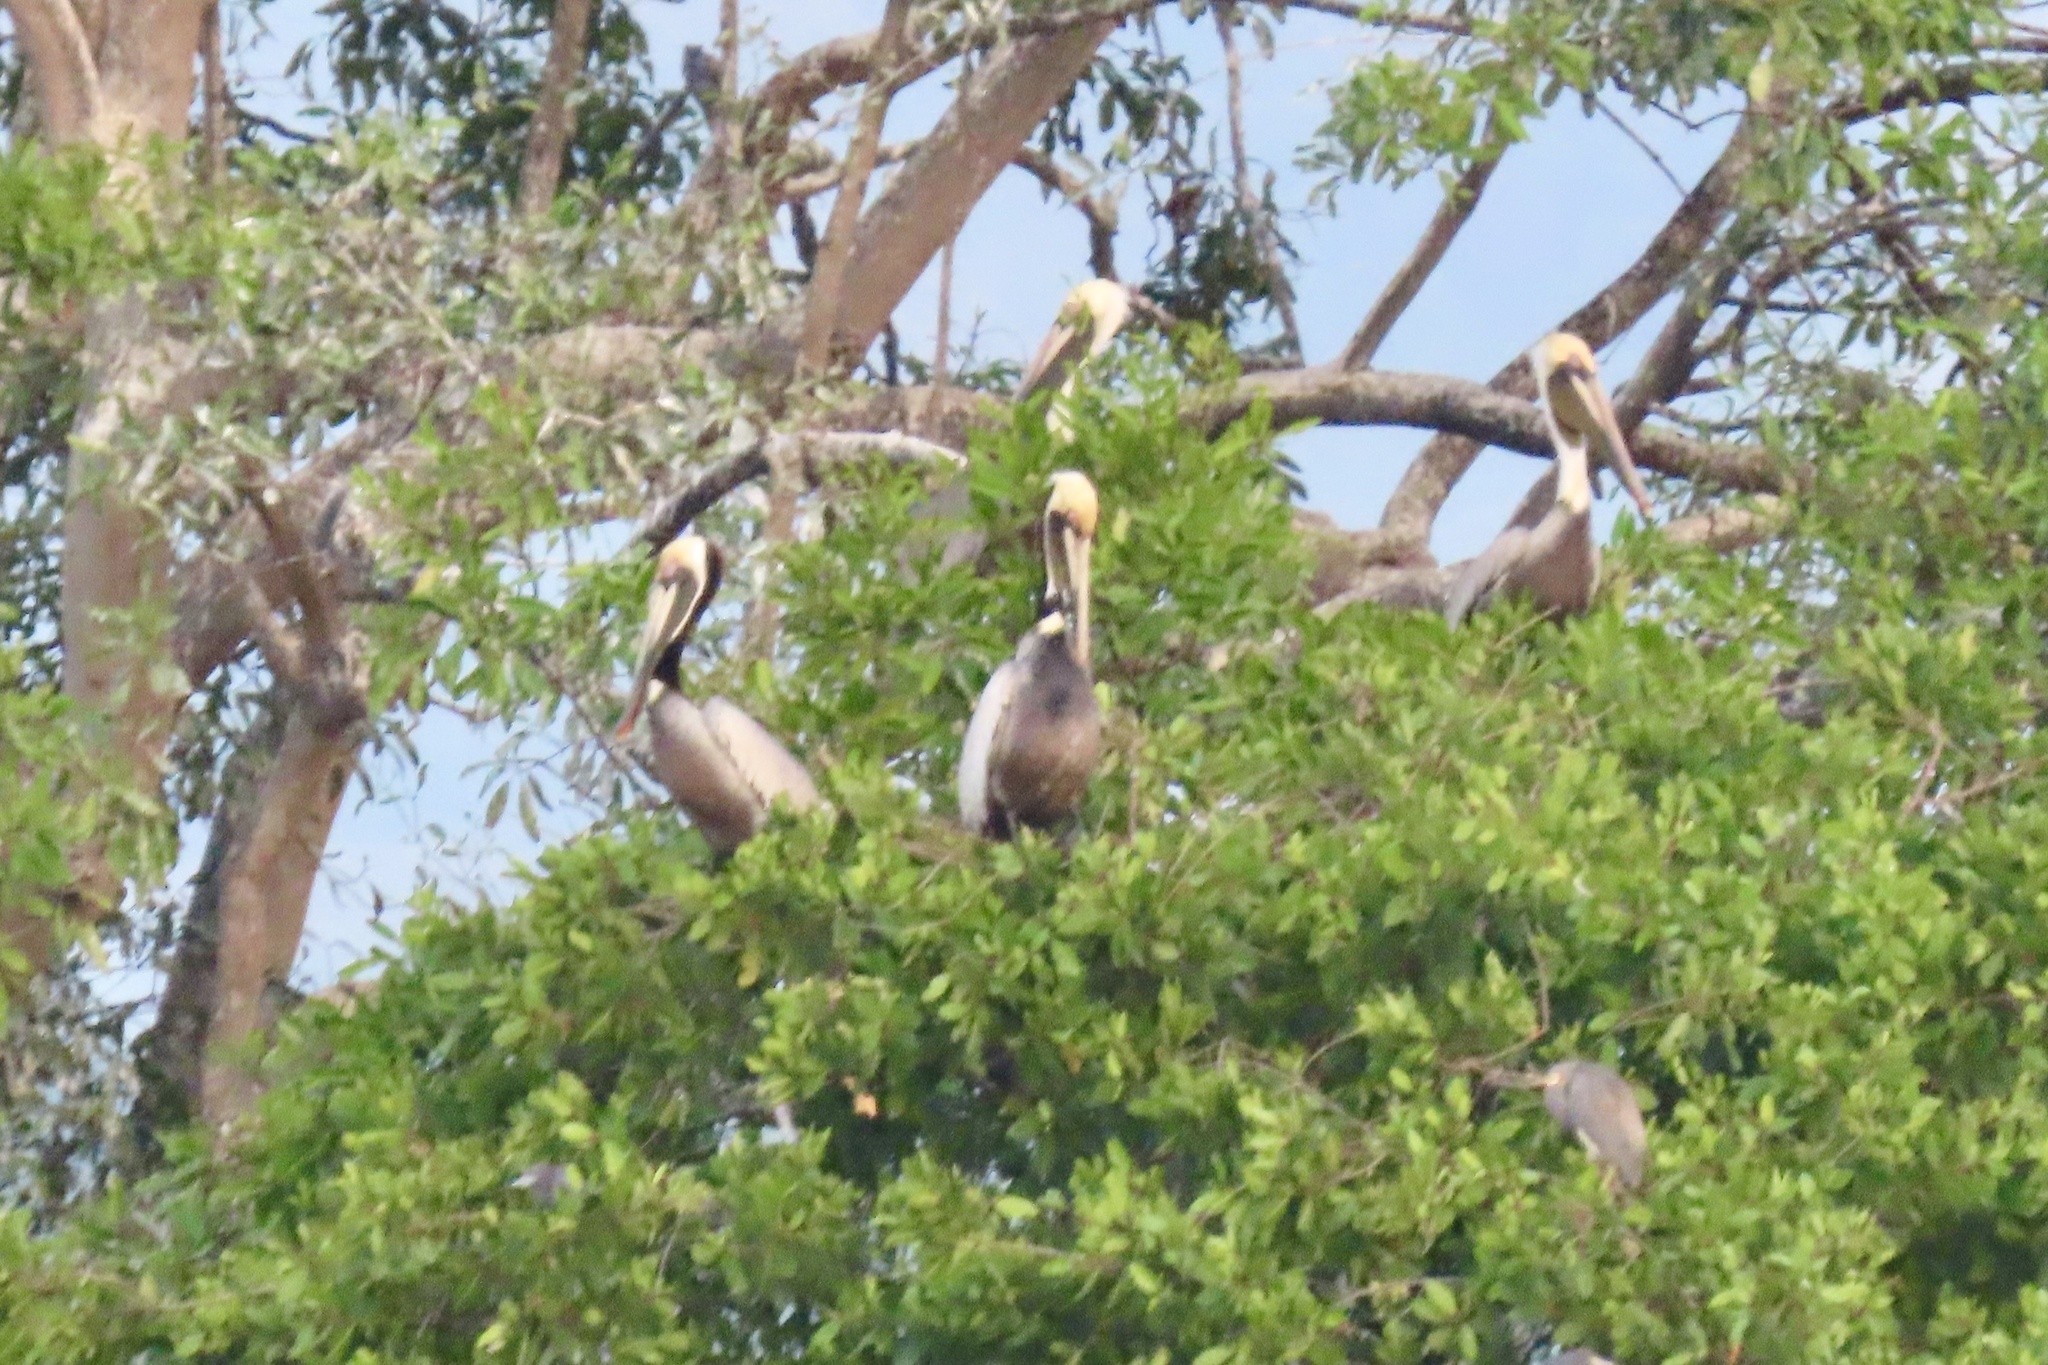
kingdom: Animalia
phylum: Chordata
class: Aves
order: Pelecaniformes
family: Pelecanidae
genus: Pelecanus
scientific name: Pelecanus occidentalis
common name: Brown pelican
